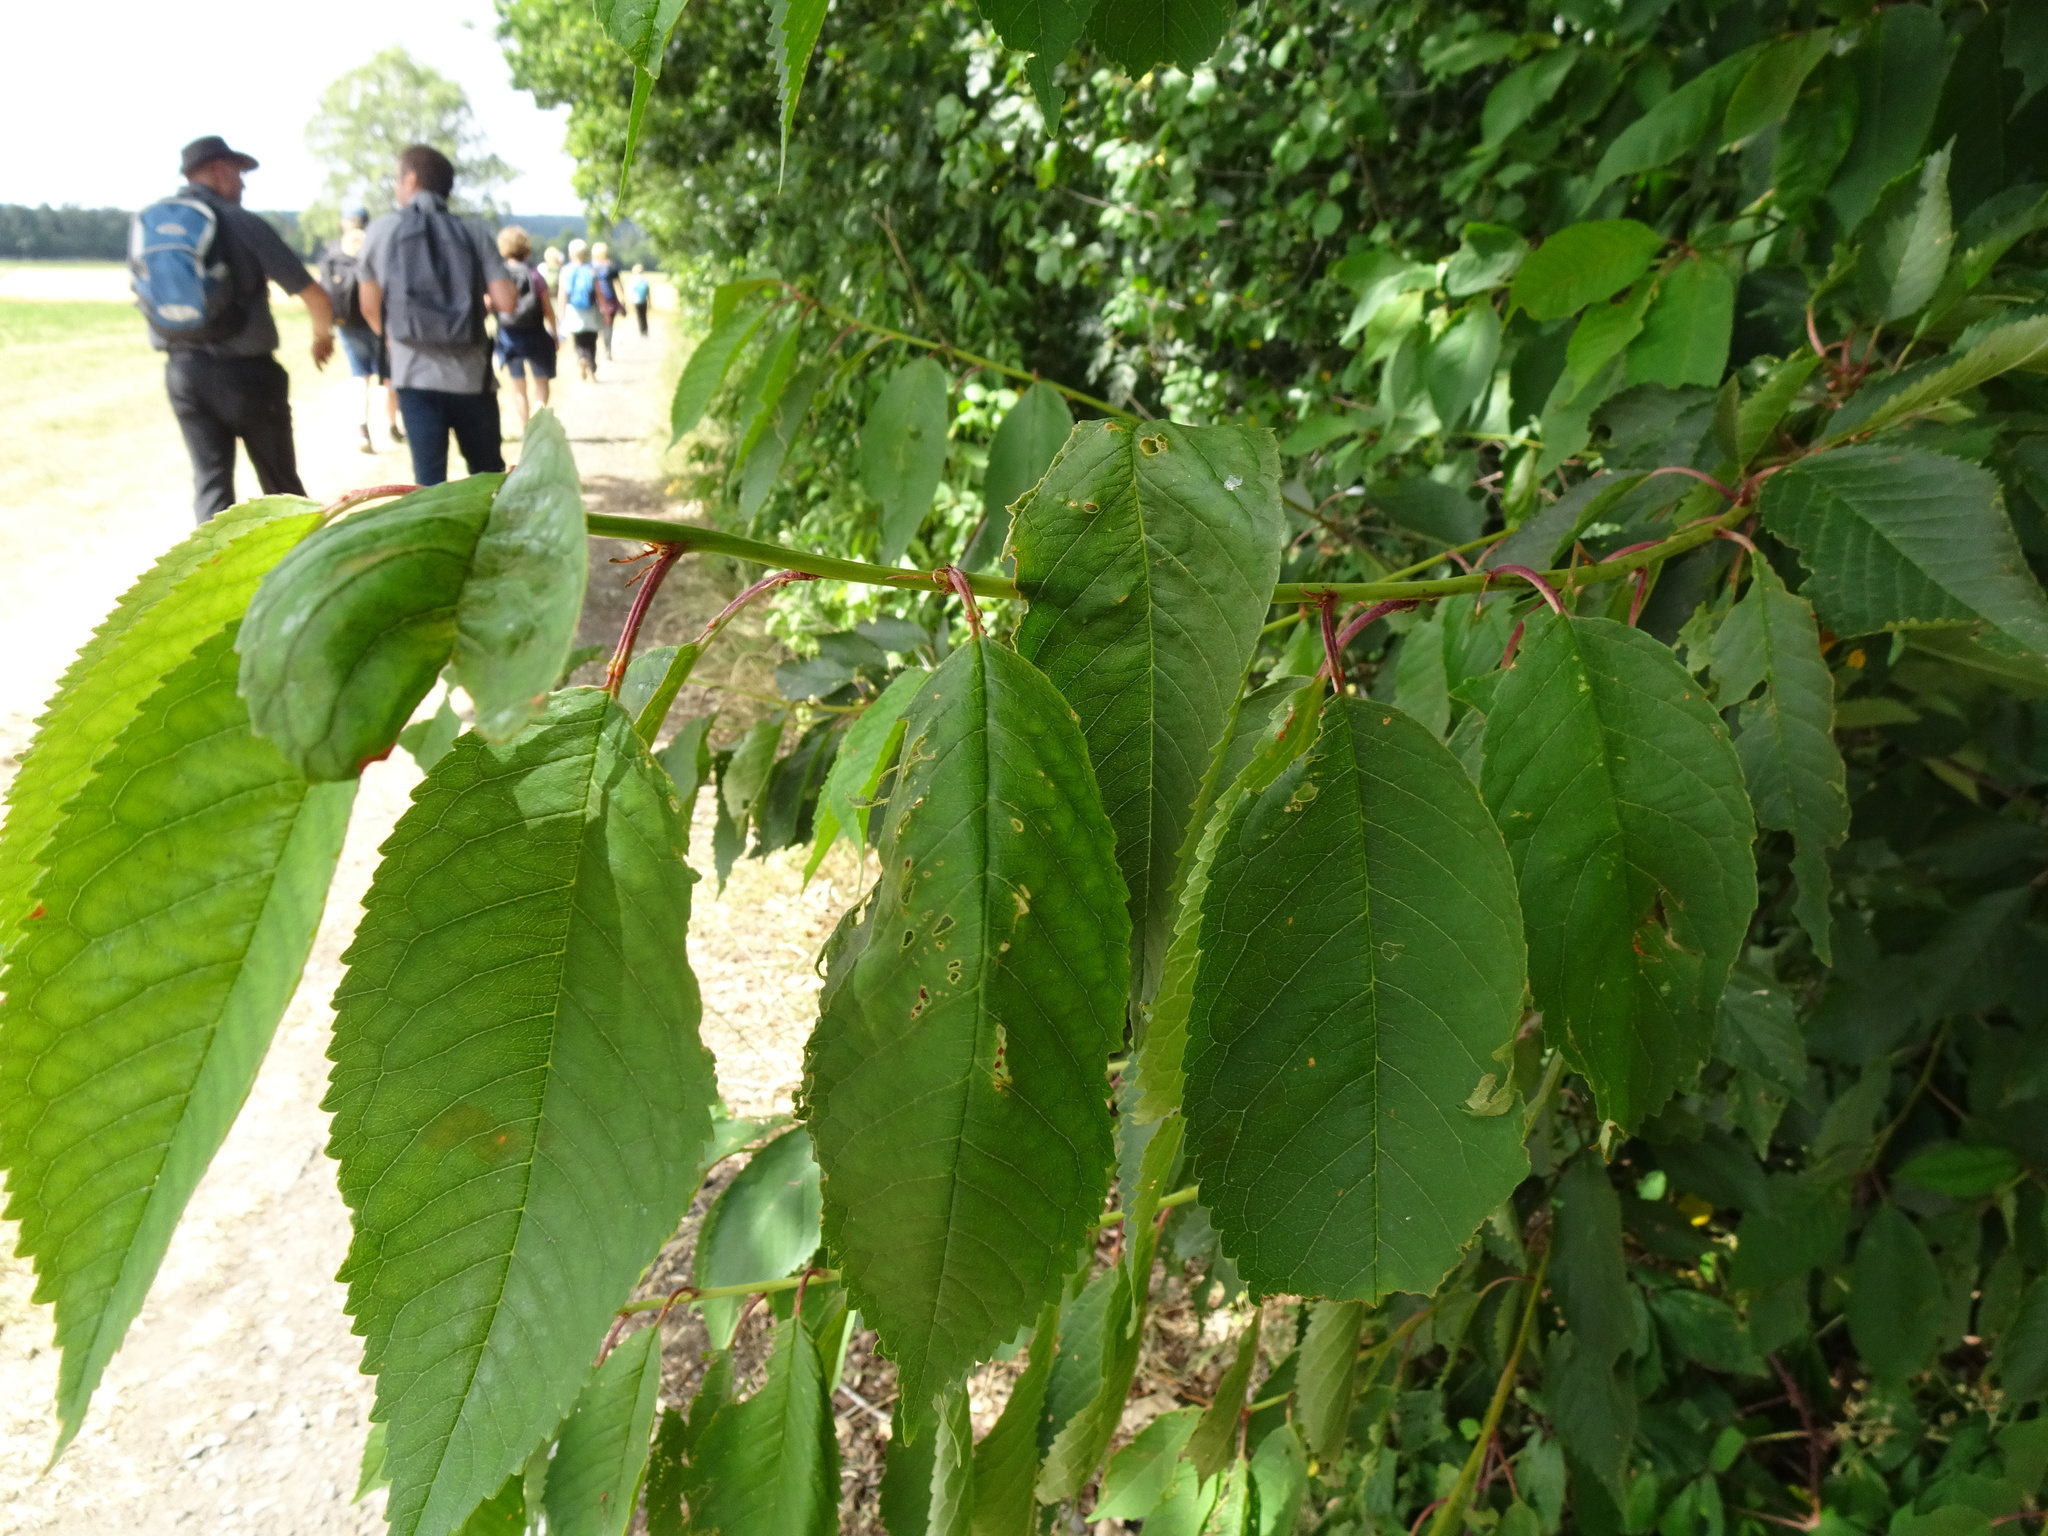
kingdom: Plantae
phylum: Tracheophyta
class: Magnoliopsida
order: Rosales
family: Rosaceae
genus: Prunus
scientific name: Prunus avium
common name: Sweet cherry
